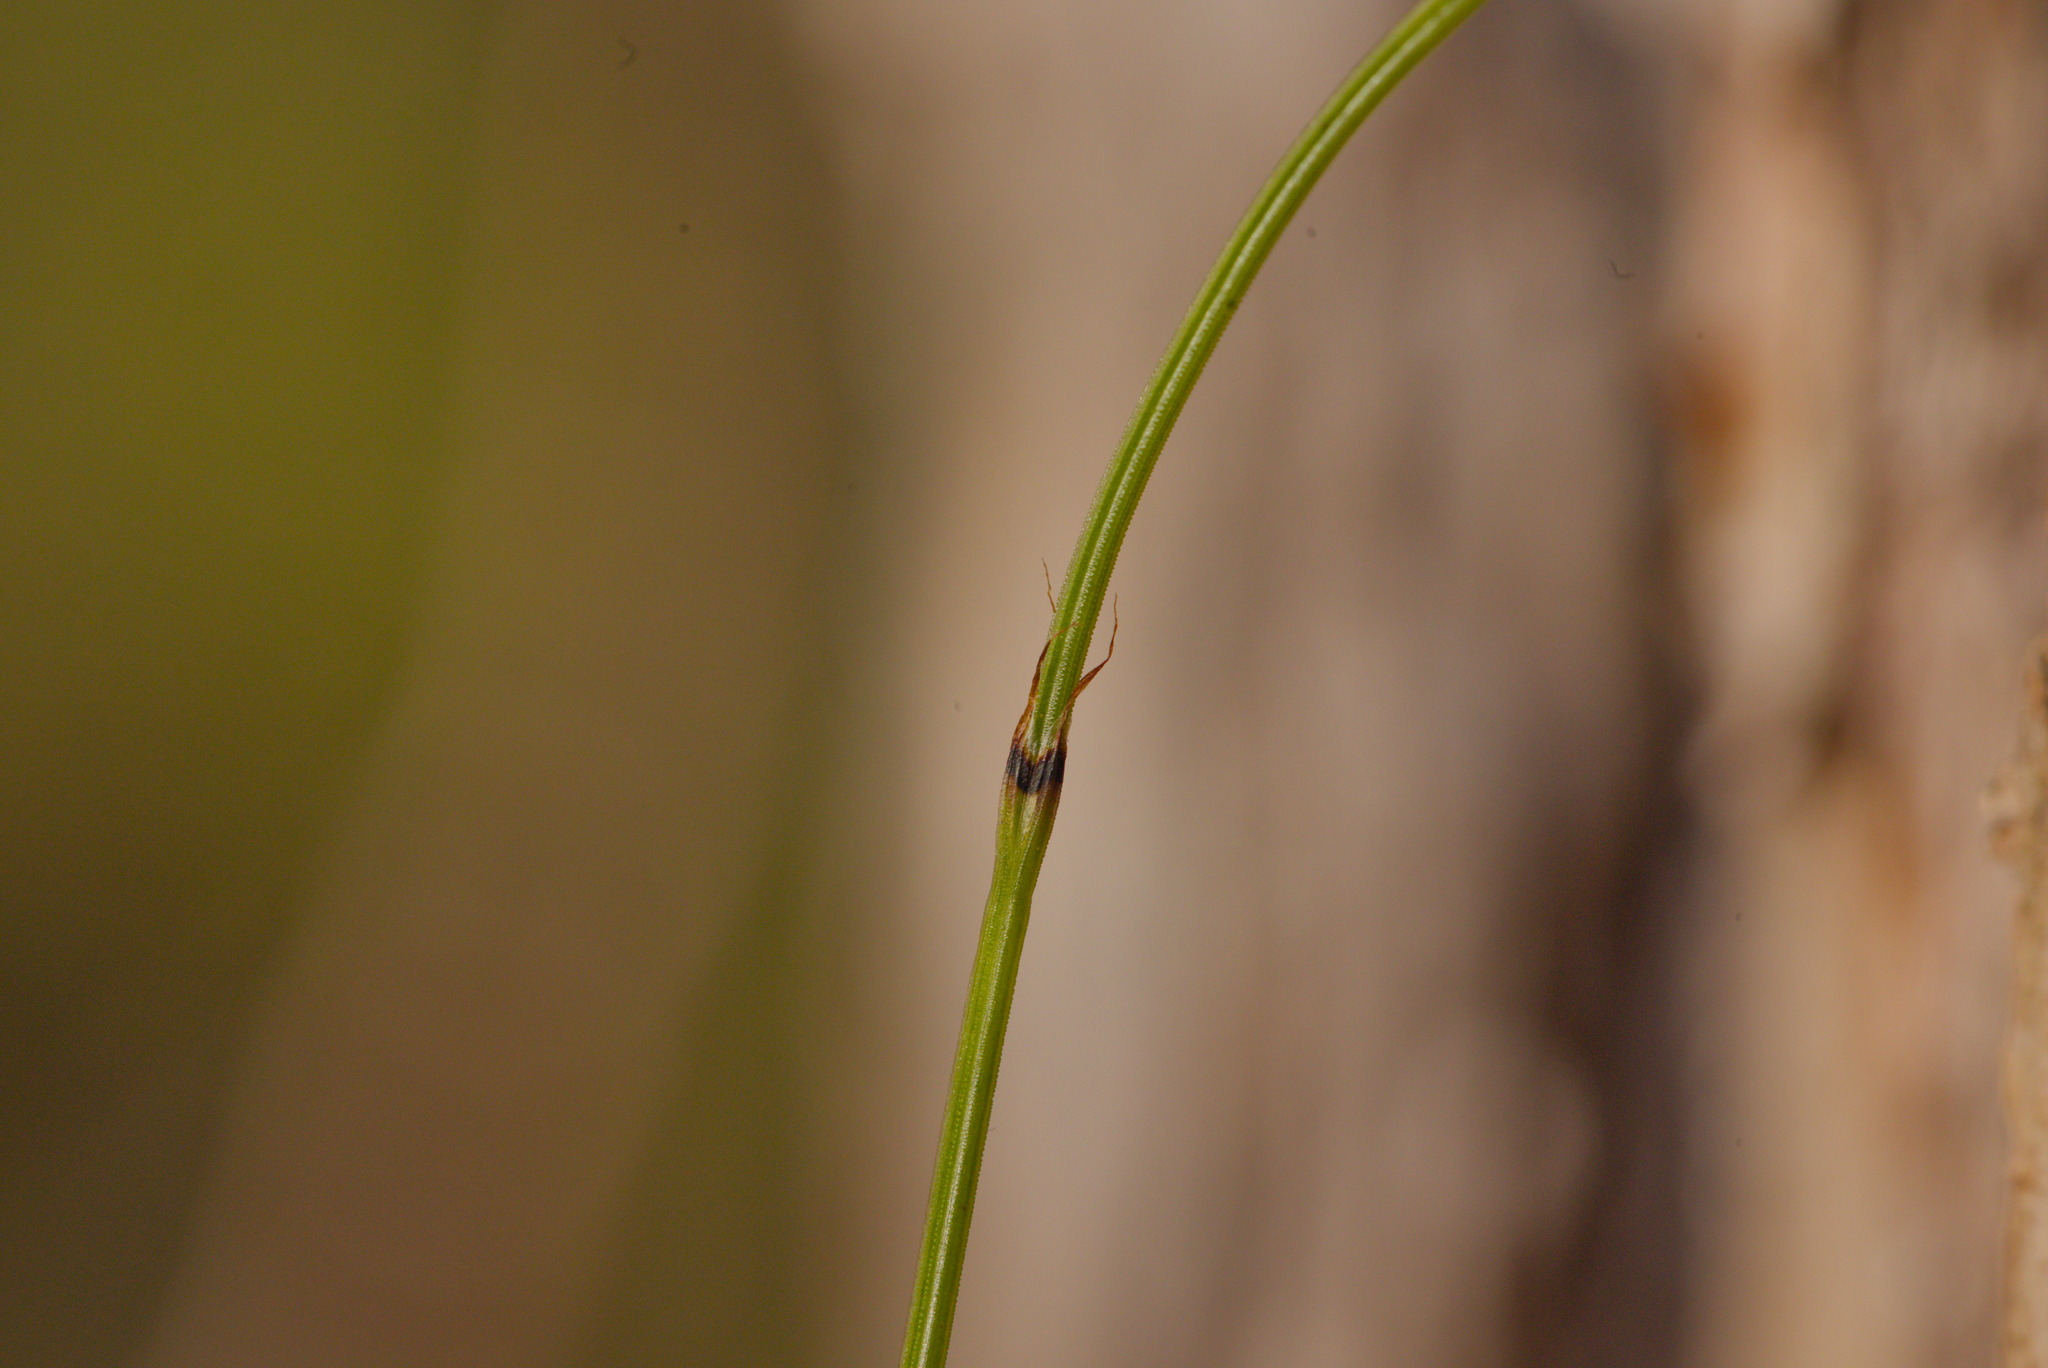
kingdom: Plantae
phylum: Tracheophyta
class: Polypodiopsida
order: Equisetales
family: Equisetaceae
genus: Equisetum
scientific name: Equisetum scirpoides
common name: Delicate horsetail
